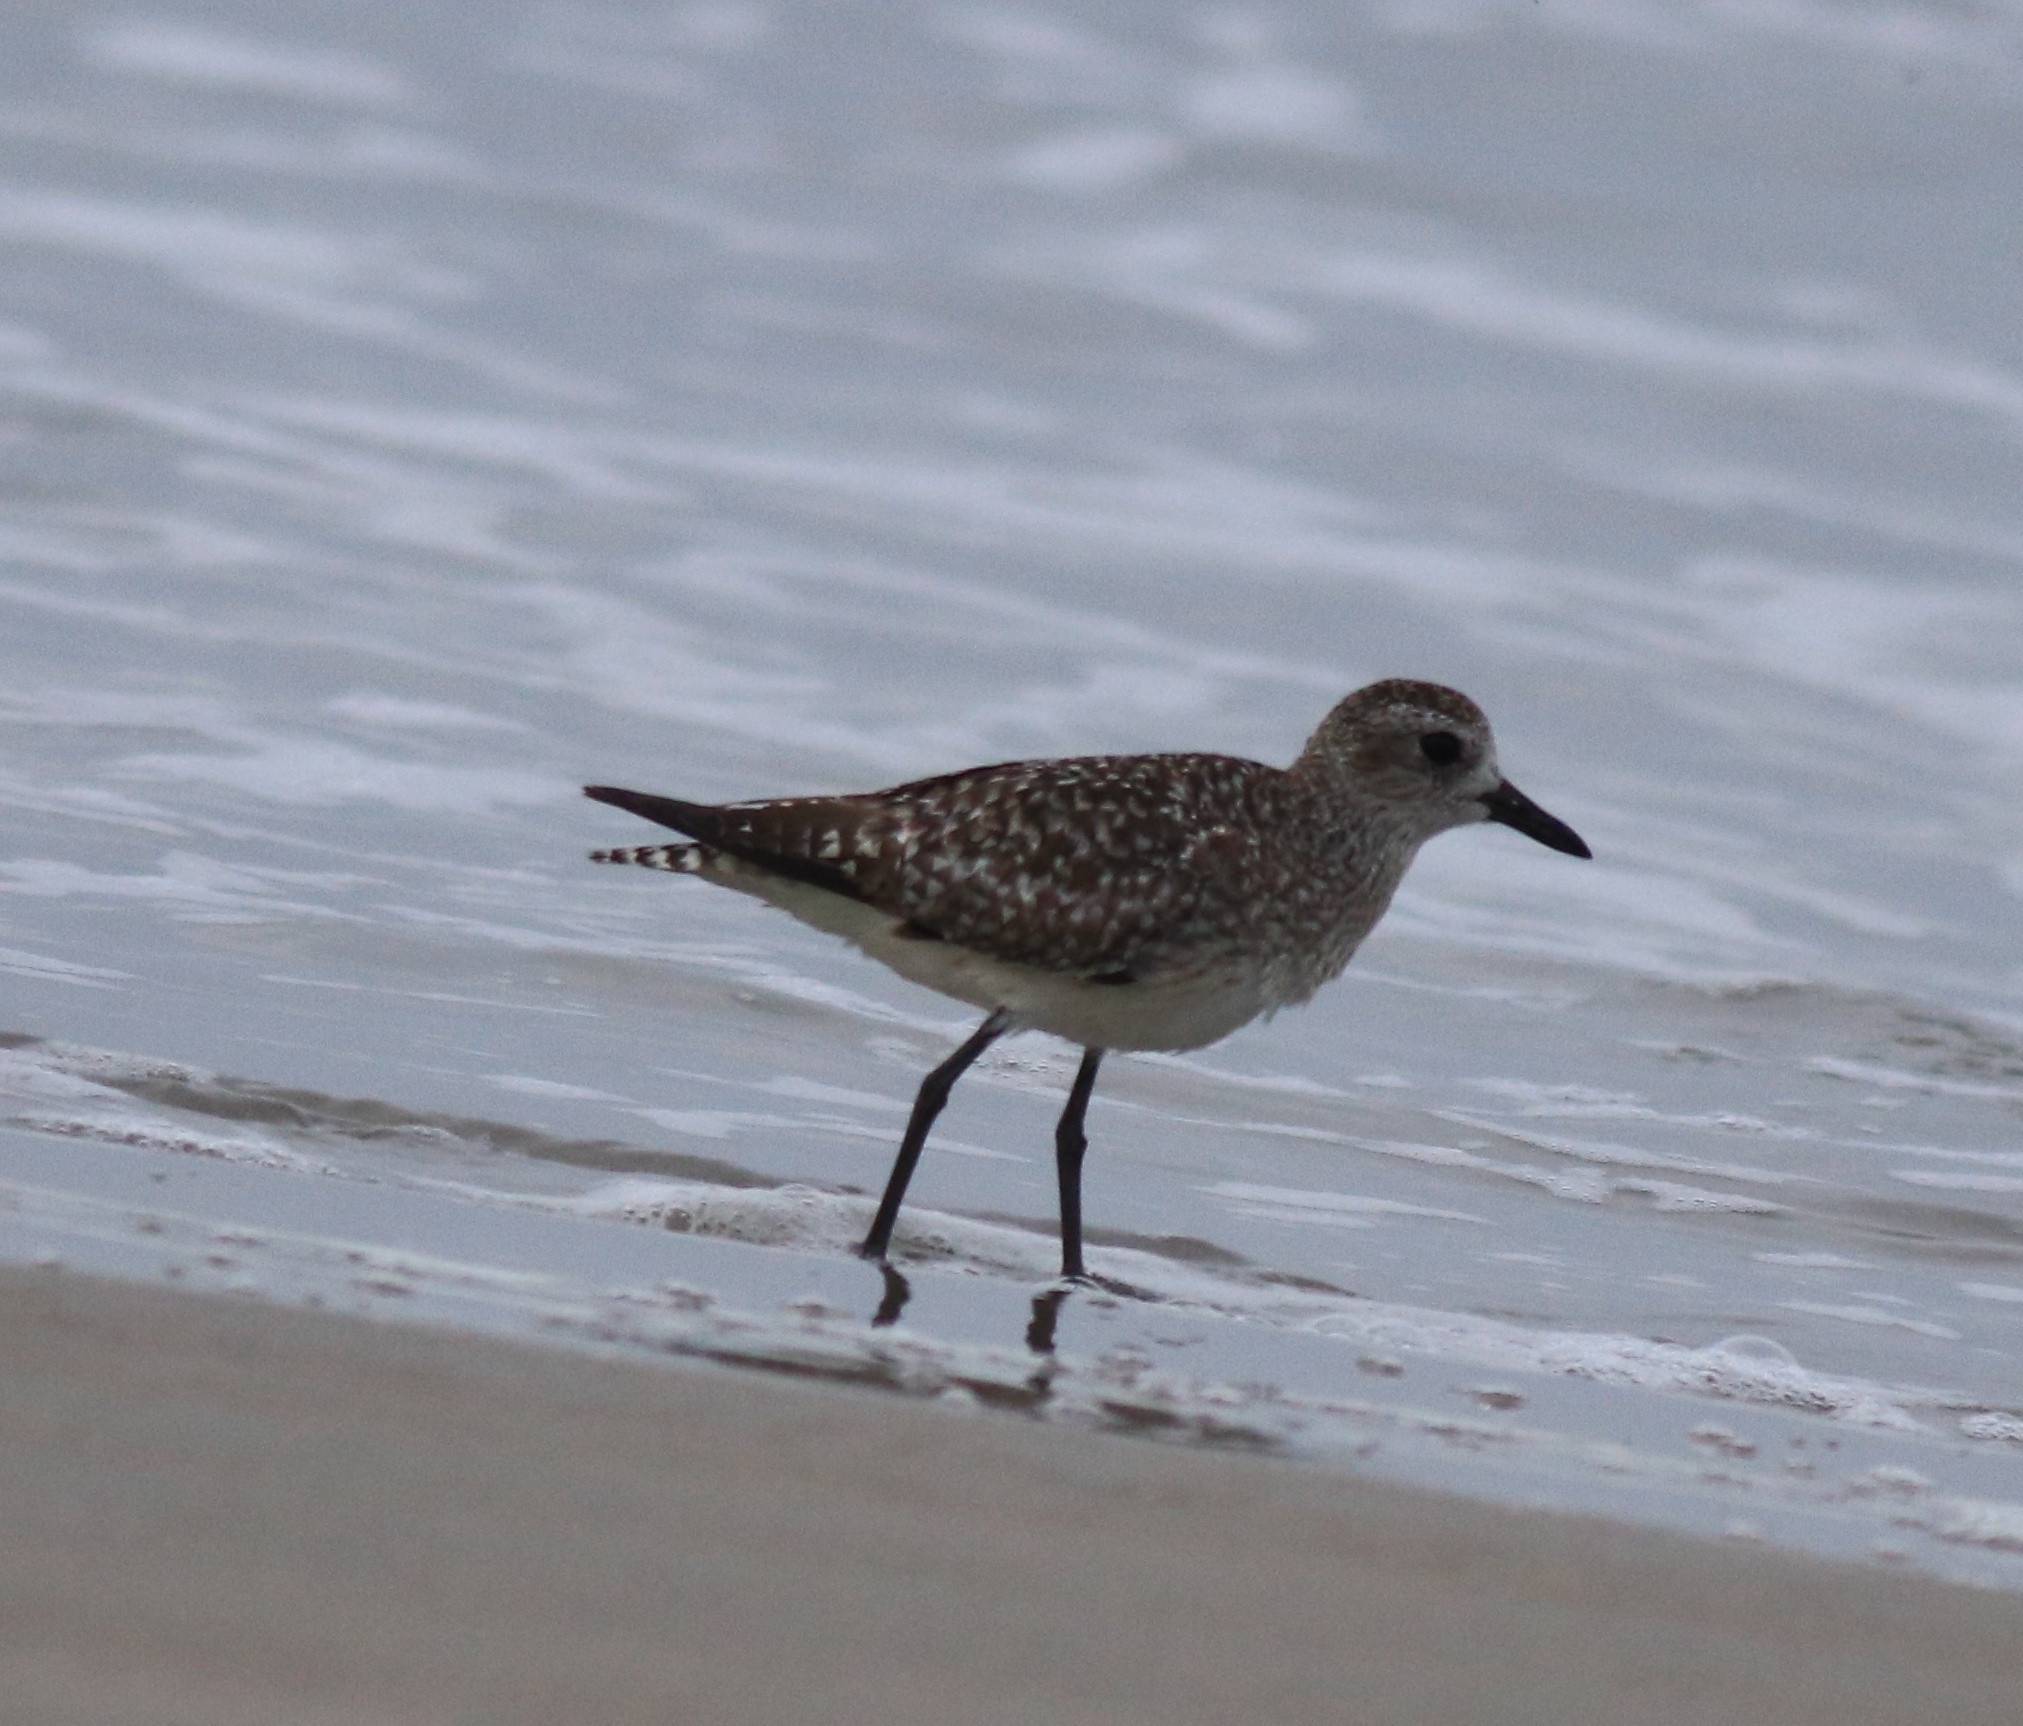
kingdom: Animalia
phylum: Chordata
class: Aves
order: Charadriiformes
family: Charadriidae
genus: Pluvialis
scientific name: Pluvialis squatarola
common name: Grey plover
